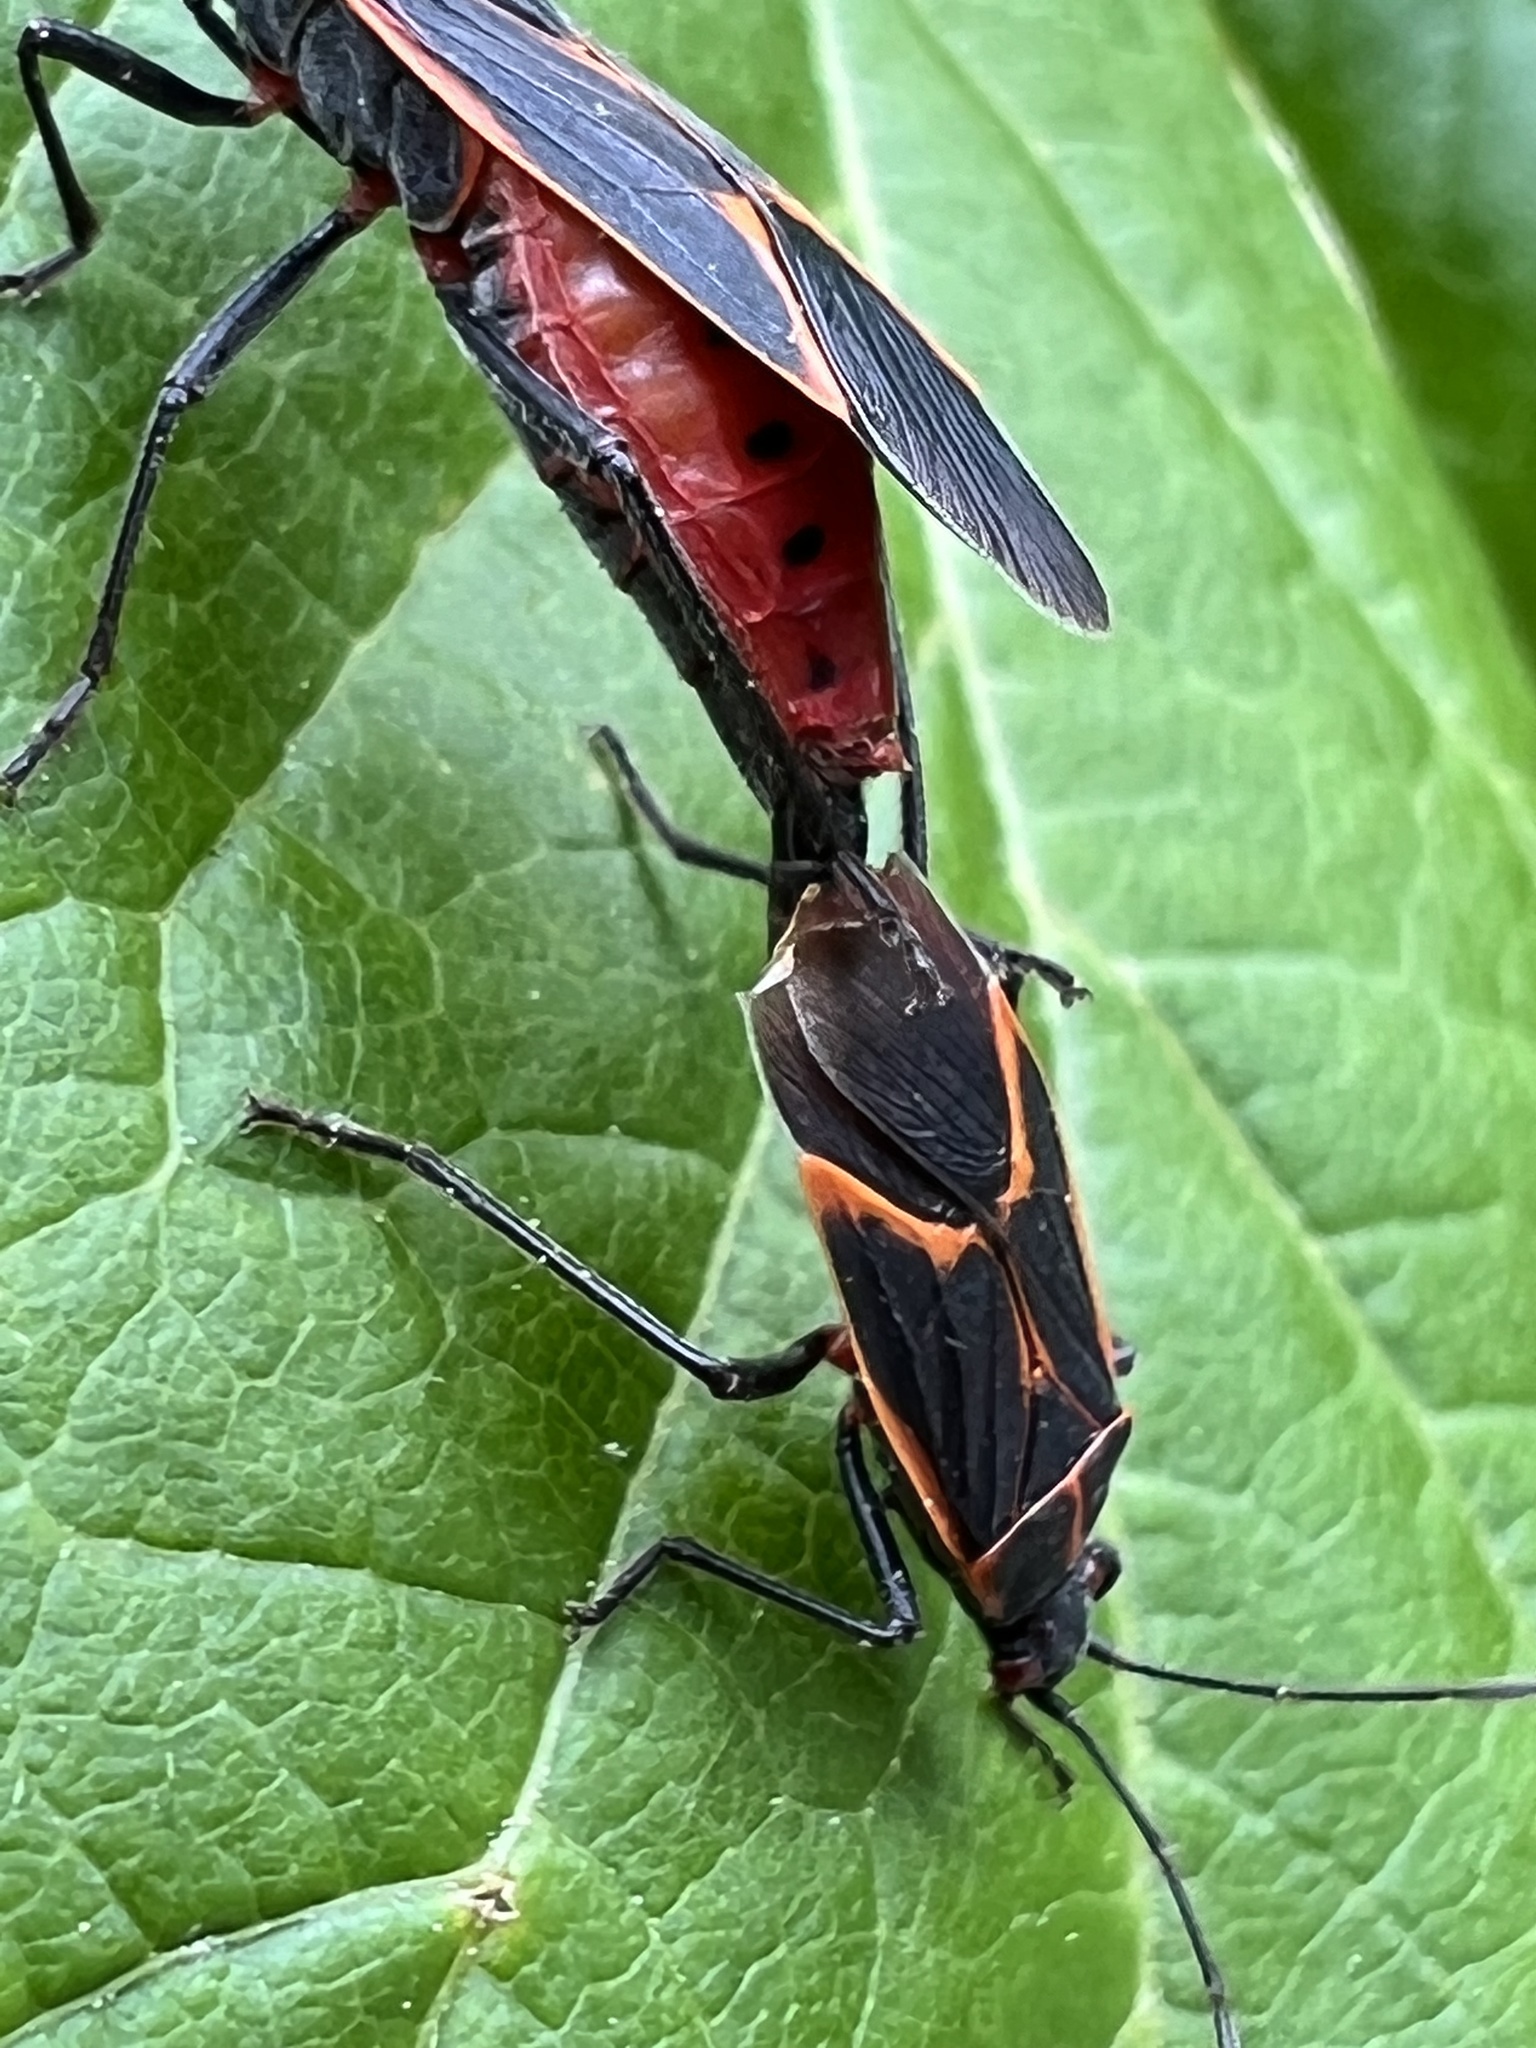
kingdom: Animalia
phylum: Arthropoda
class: Insecta
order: Hemiptera
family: Rhopalidae
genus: Boisea
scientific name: Boisea trivittata
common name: Boxelder bug
